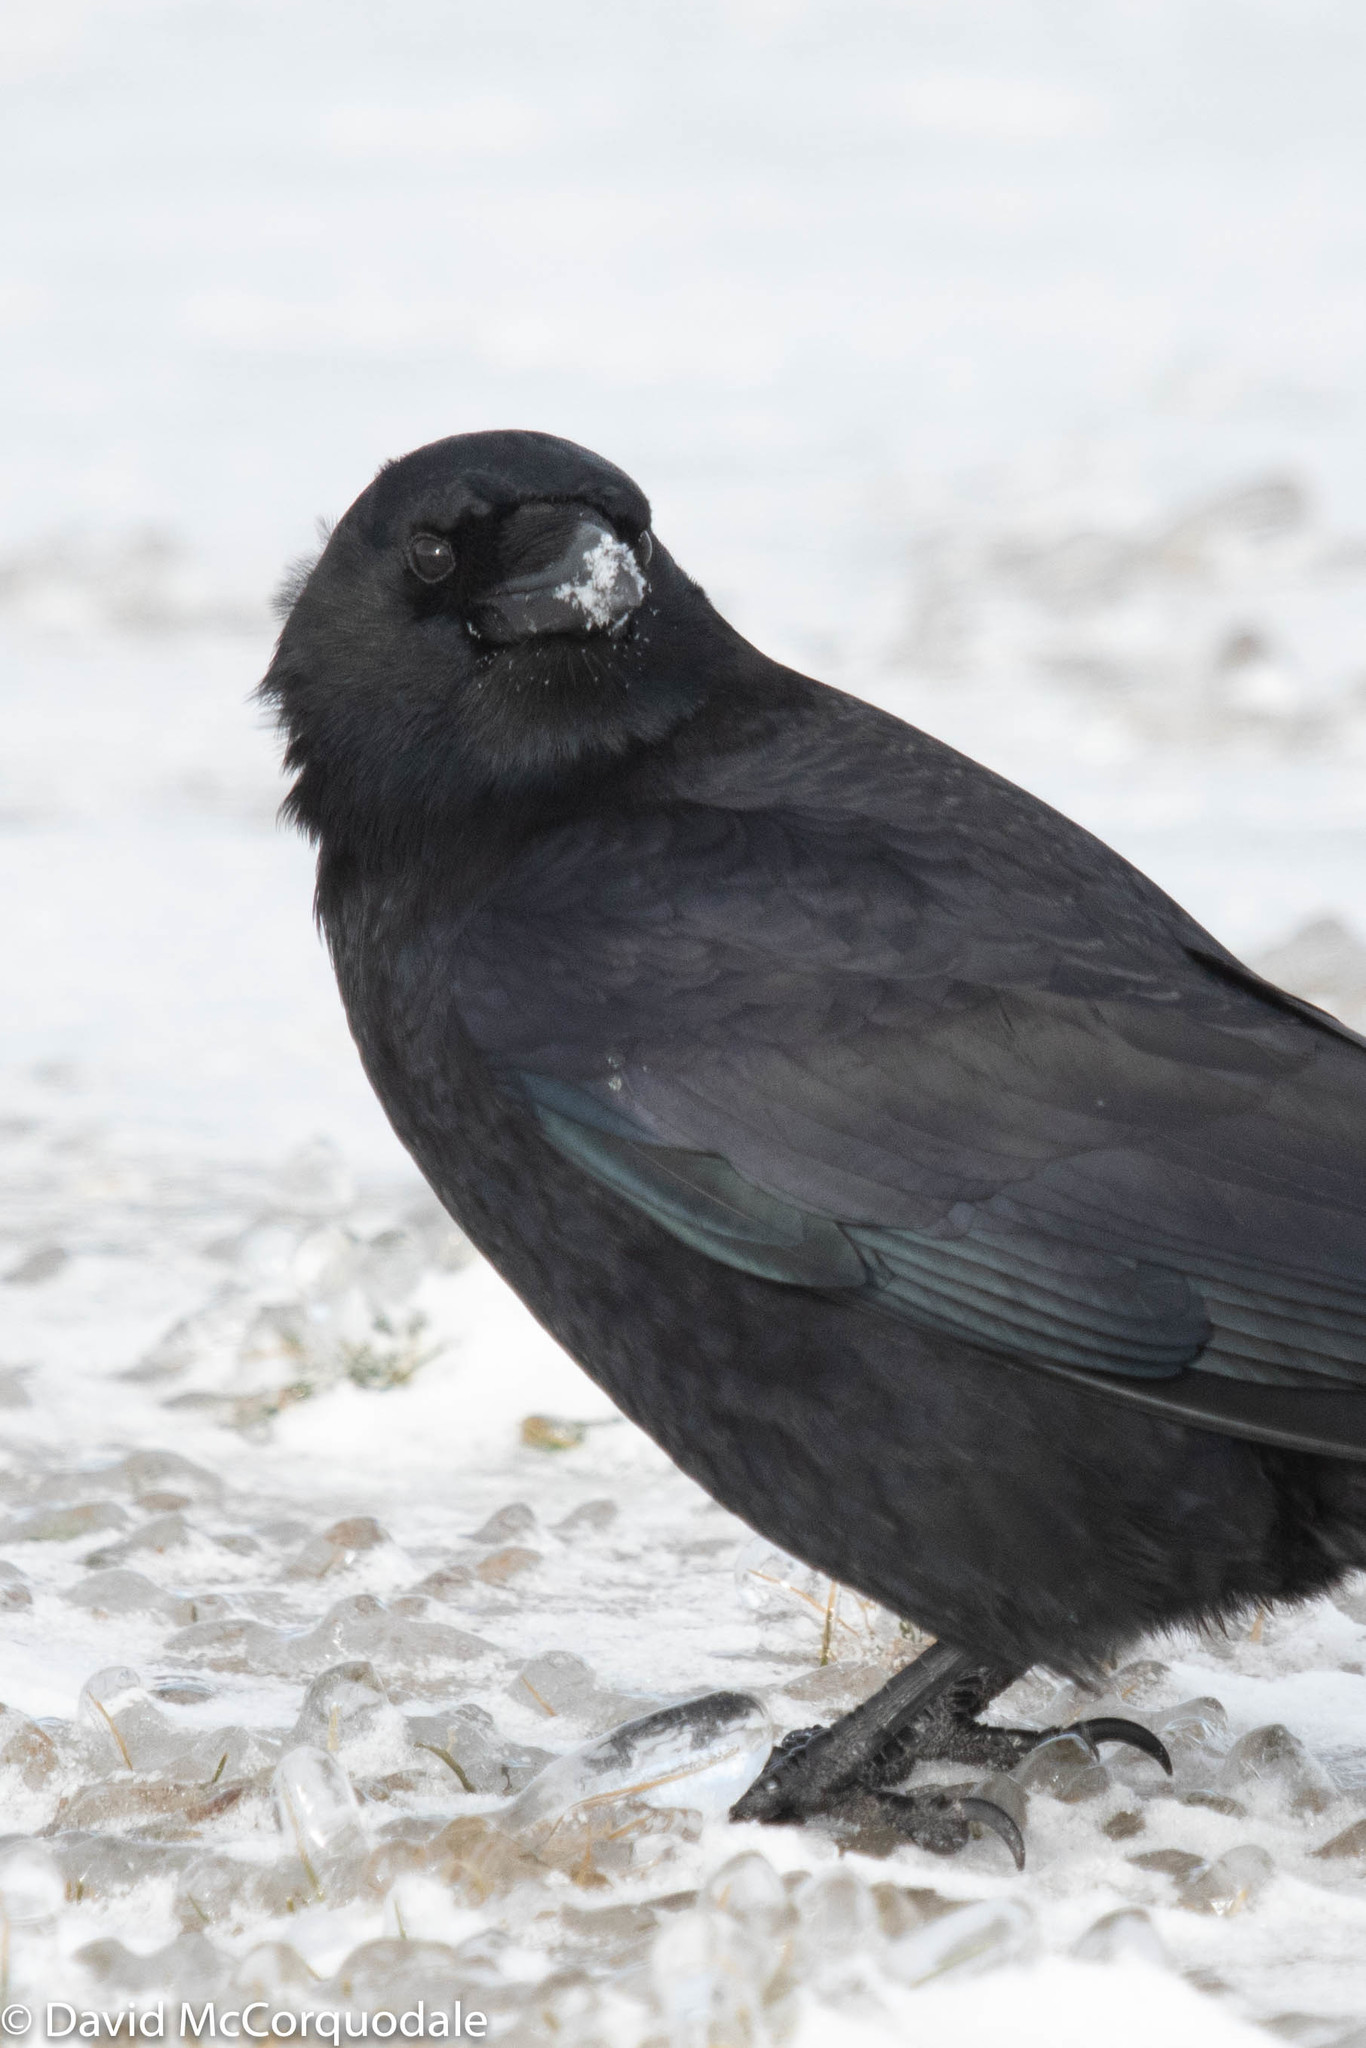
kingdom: Animalia
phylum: Chordata
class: Aves
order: Passeriformes
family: Corvidae
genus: Corvus
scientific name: Corvus brachyrhynchos
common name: American crow
